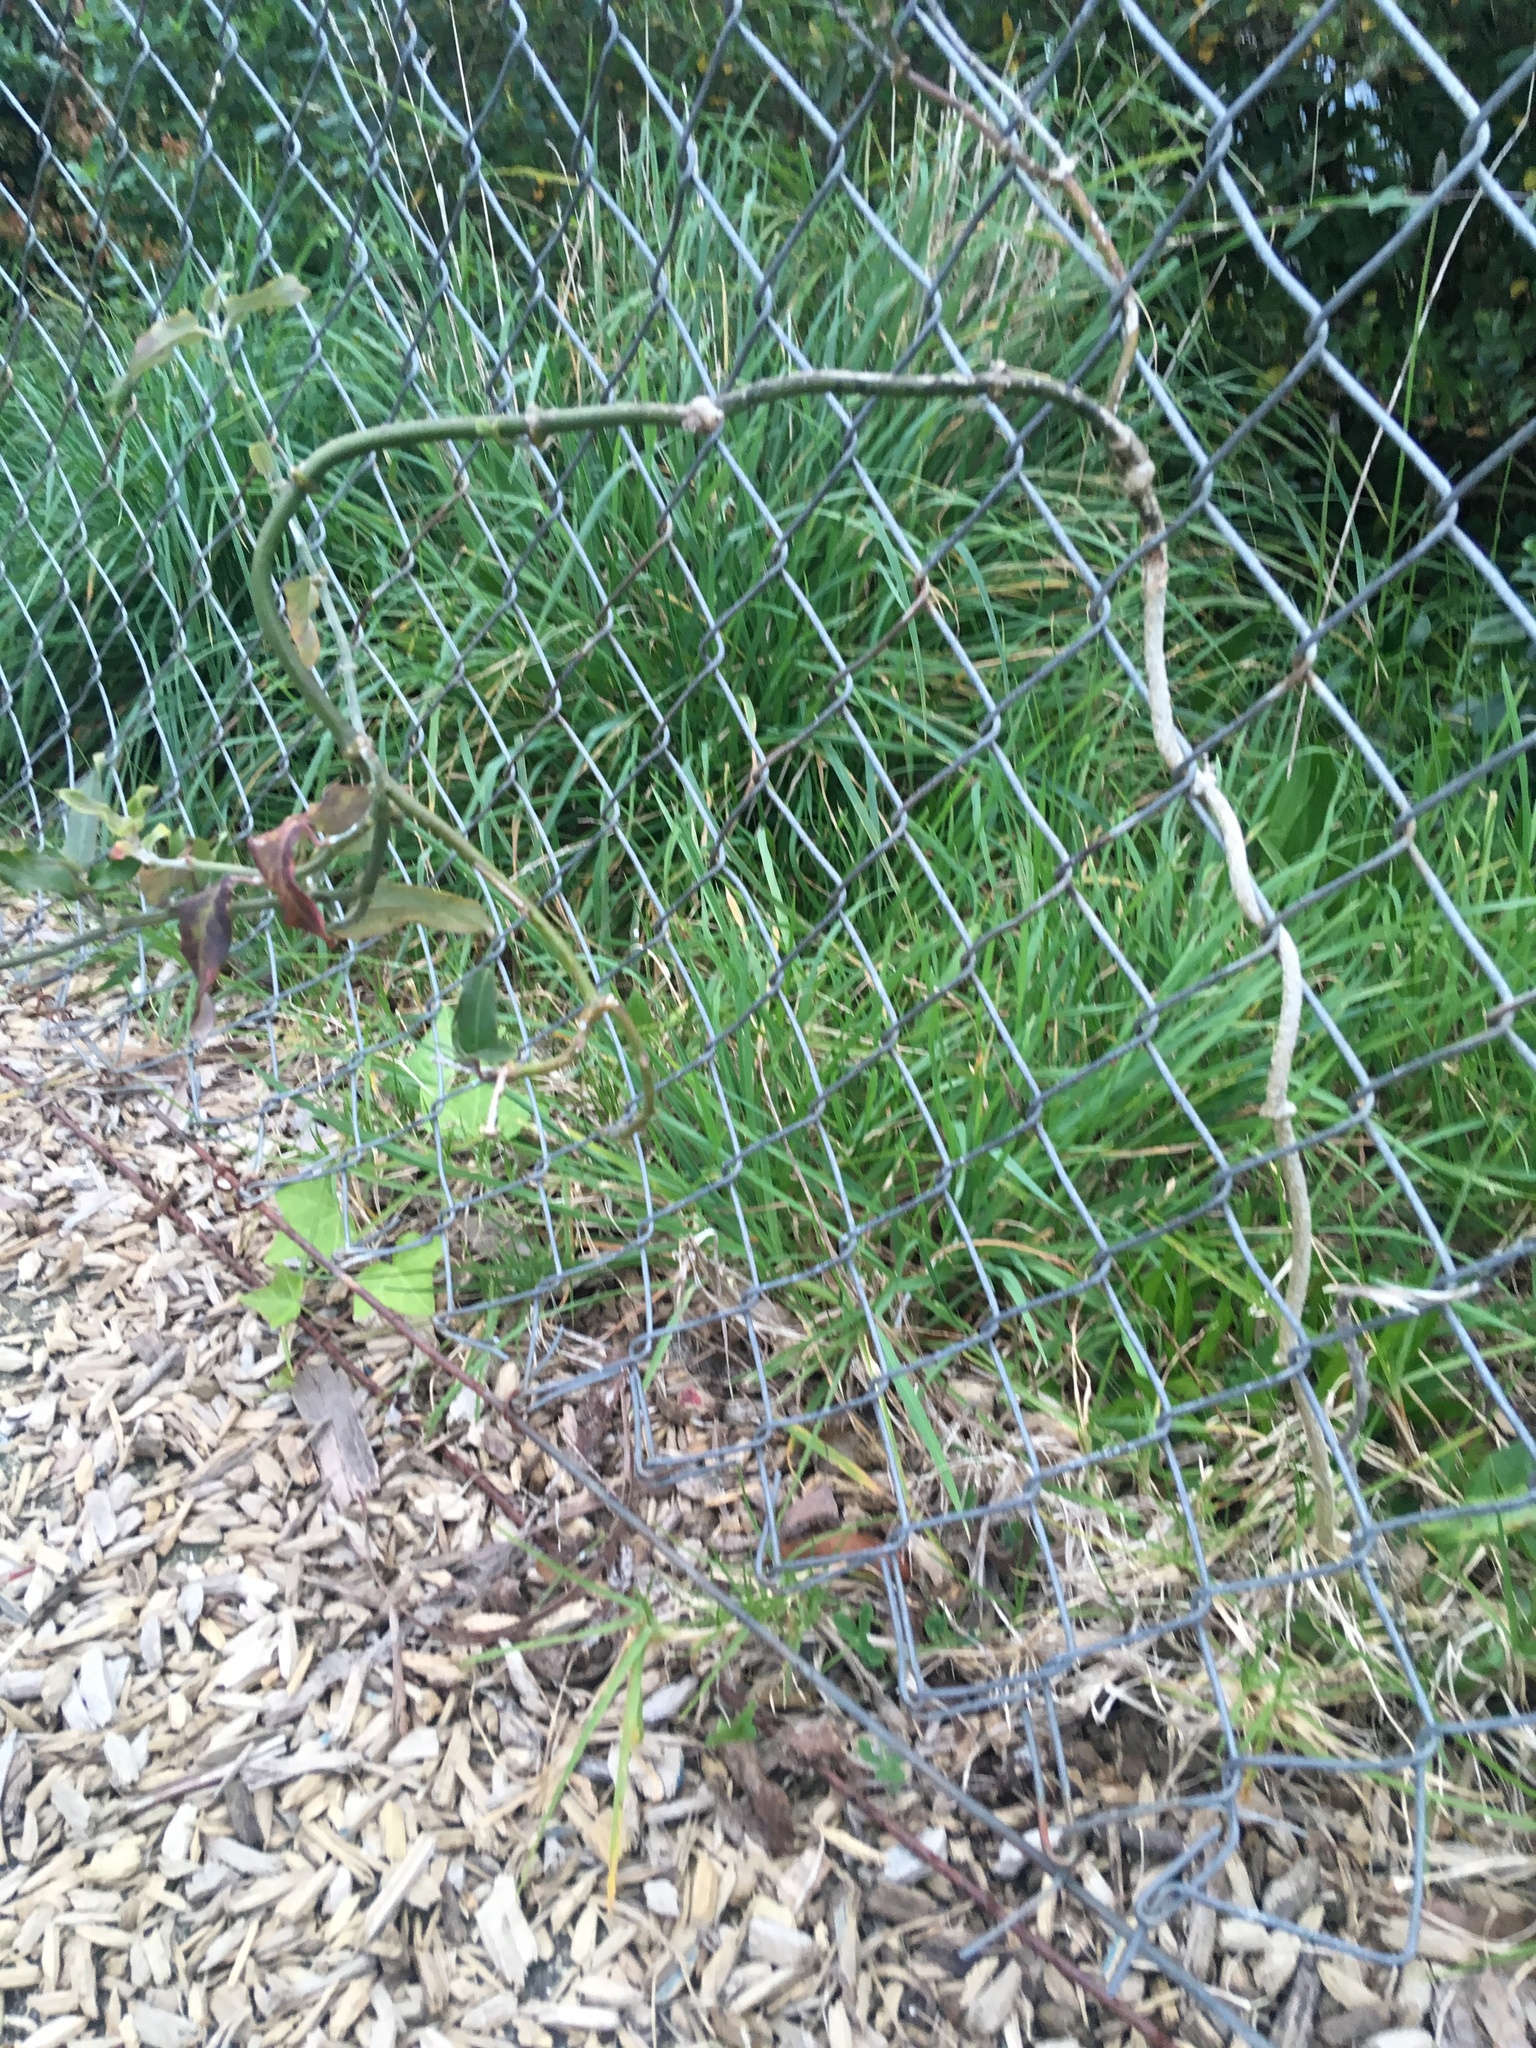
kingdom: Plantae
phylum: Tracheophyta
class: Magnoliopsida
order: Gentianales
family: Apocynaceae
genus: Araujia
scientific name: Araujia sericifera
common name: White bladderflower
